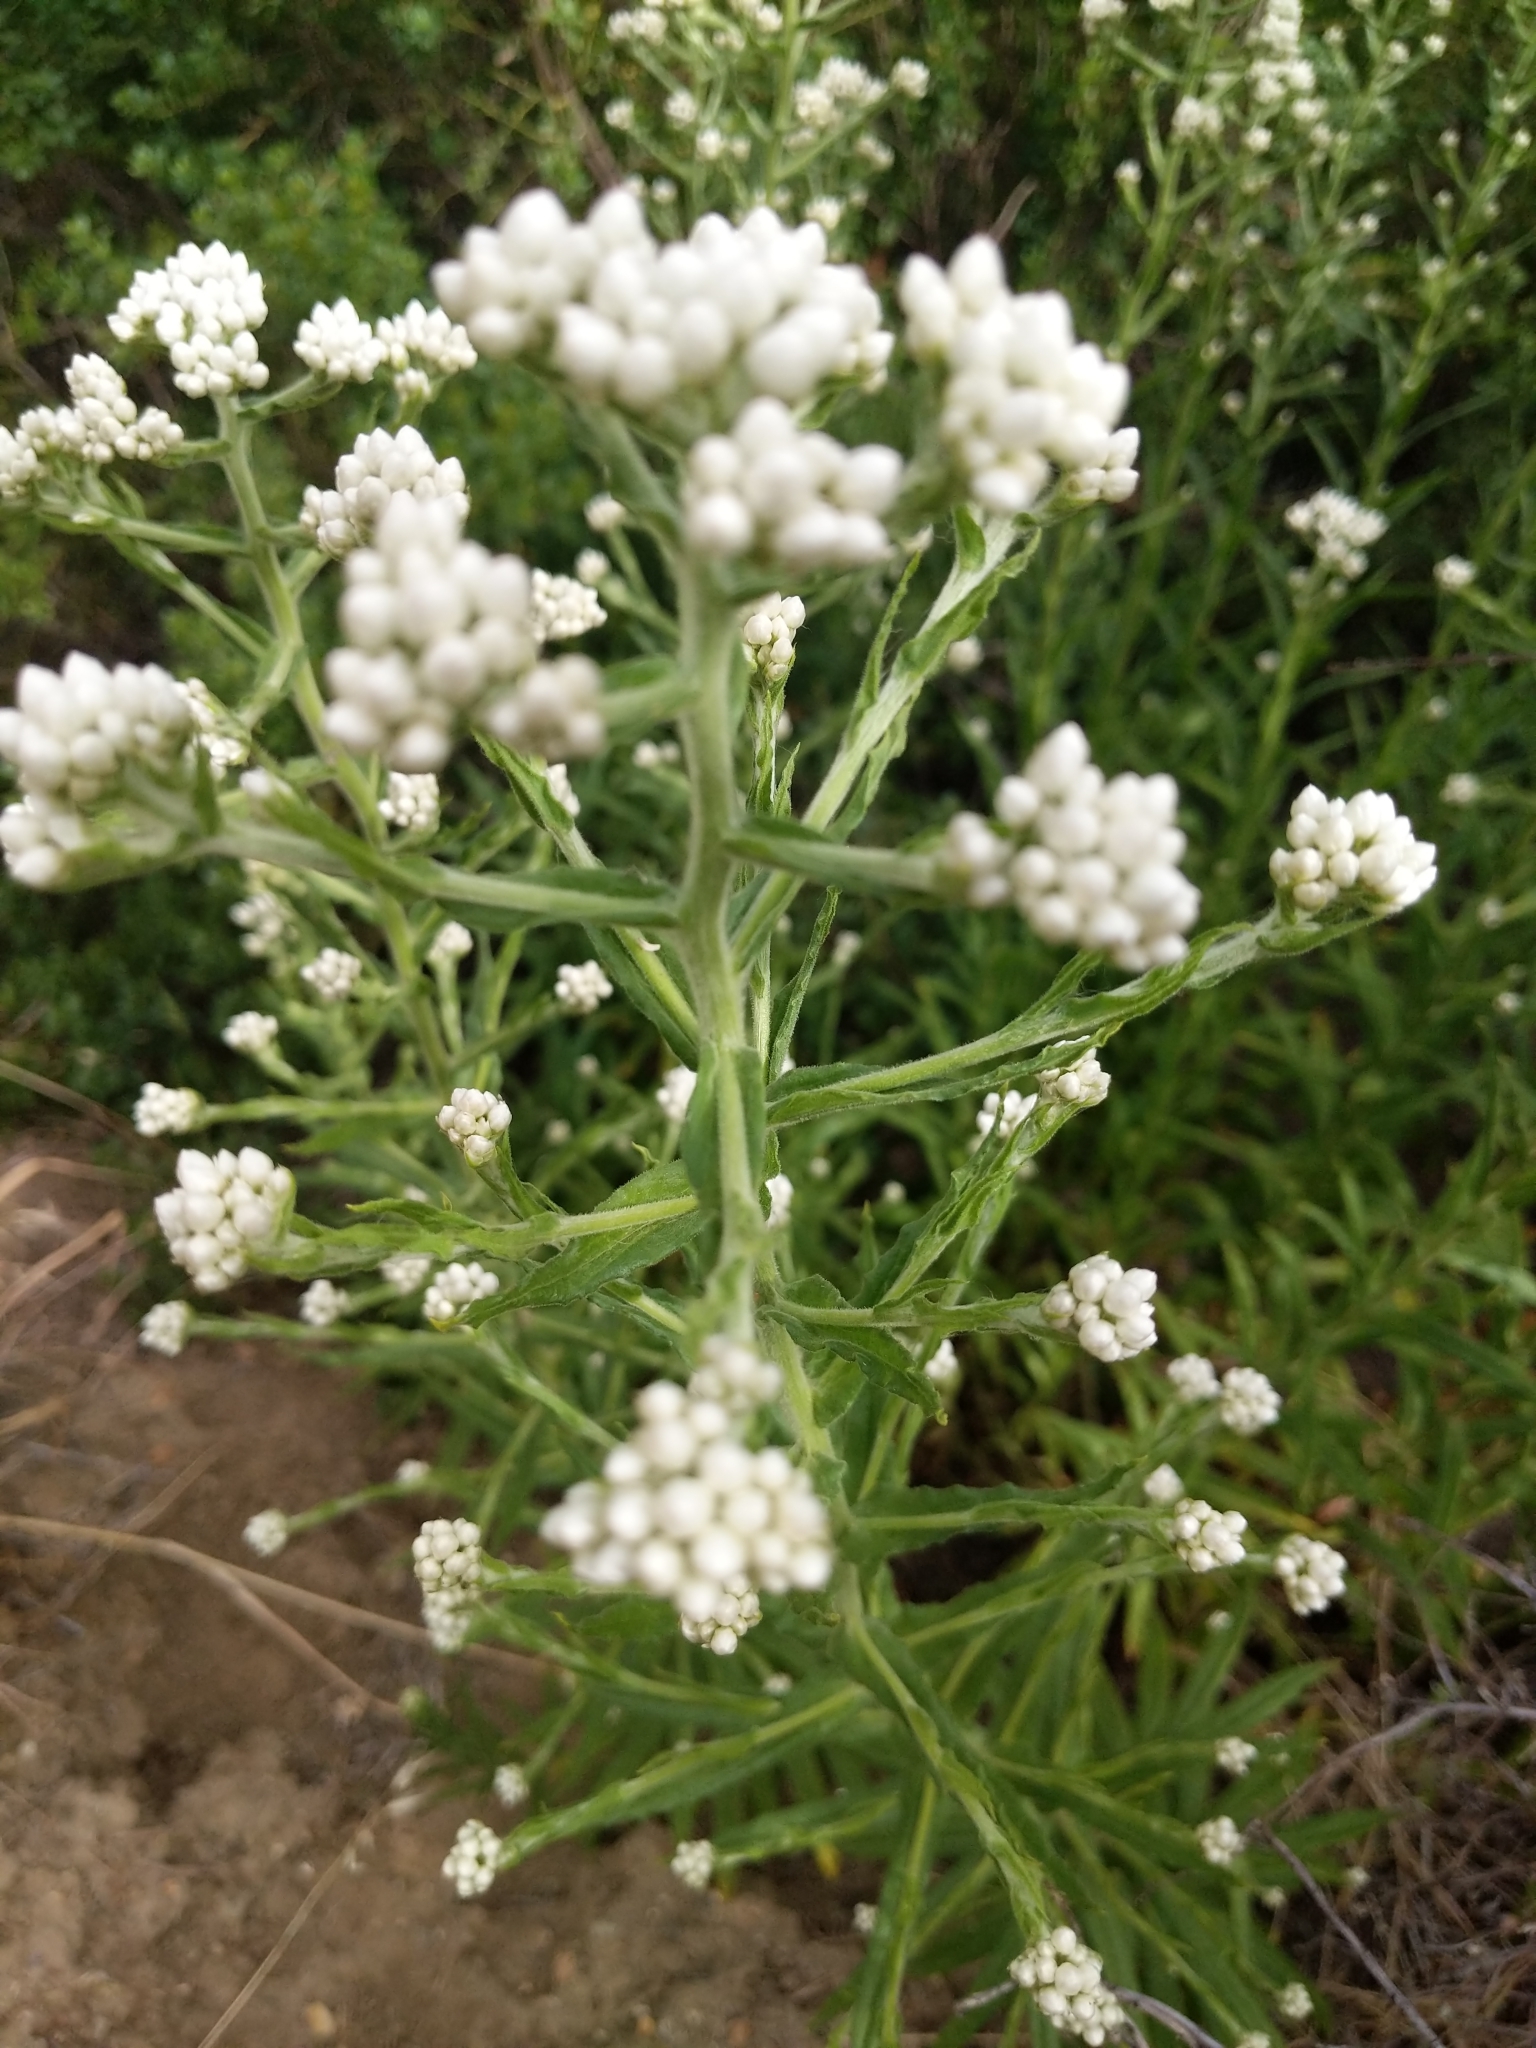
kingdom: Plantae
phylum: Tracheophyta
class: Magnoliopsida
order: Asterales
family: Asteraceae
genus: Pseudognaphalium
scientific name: Pseudognaphalium californicum
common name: California rabbit-tobacco
